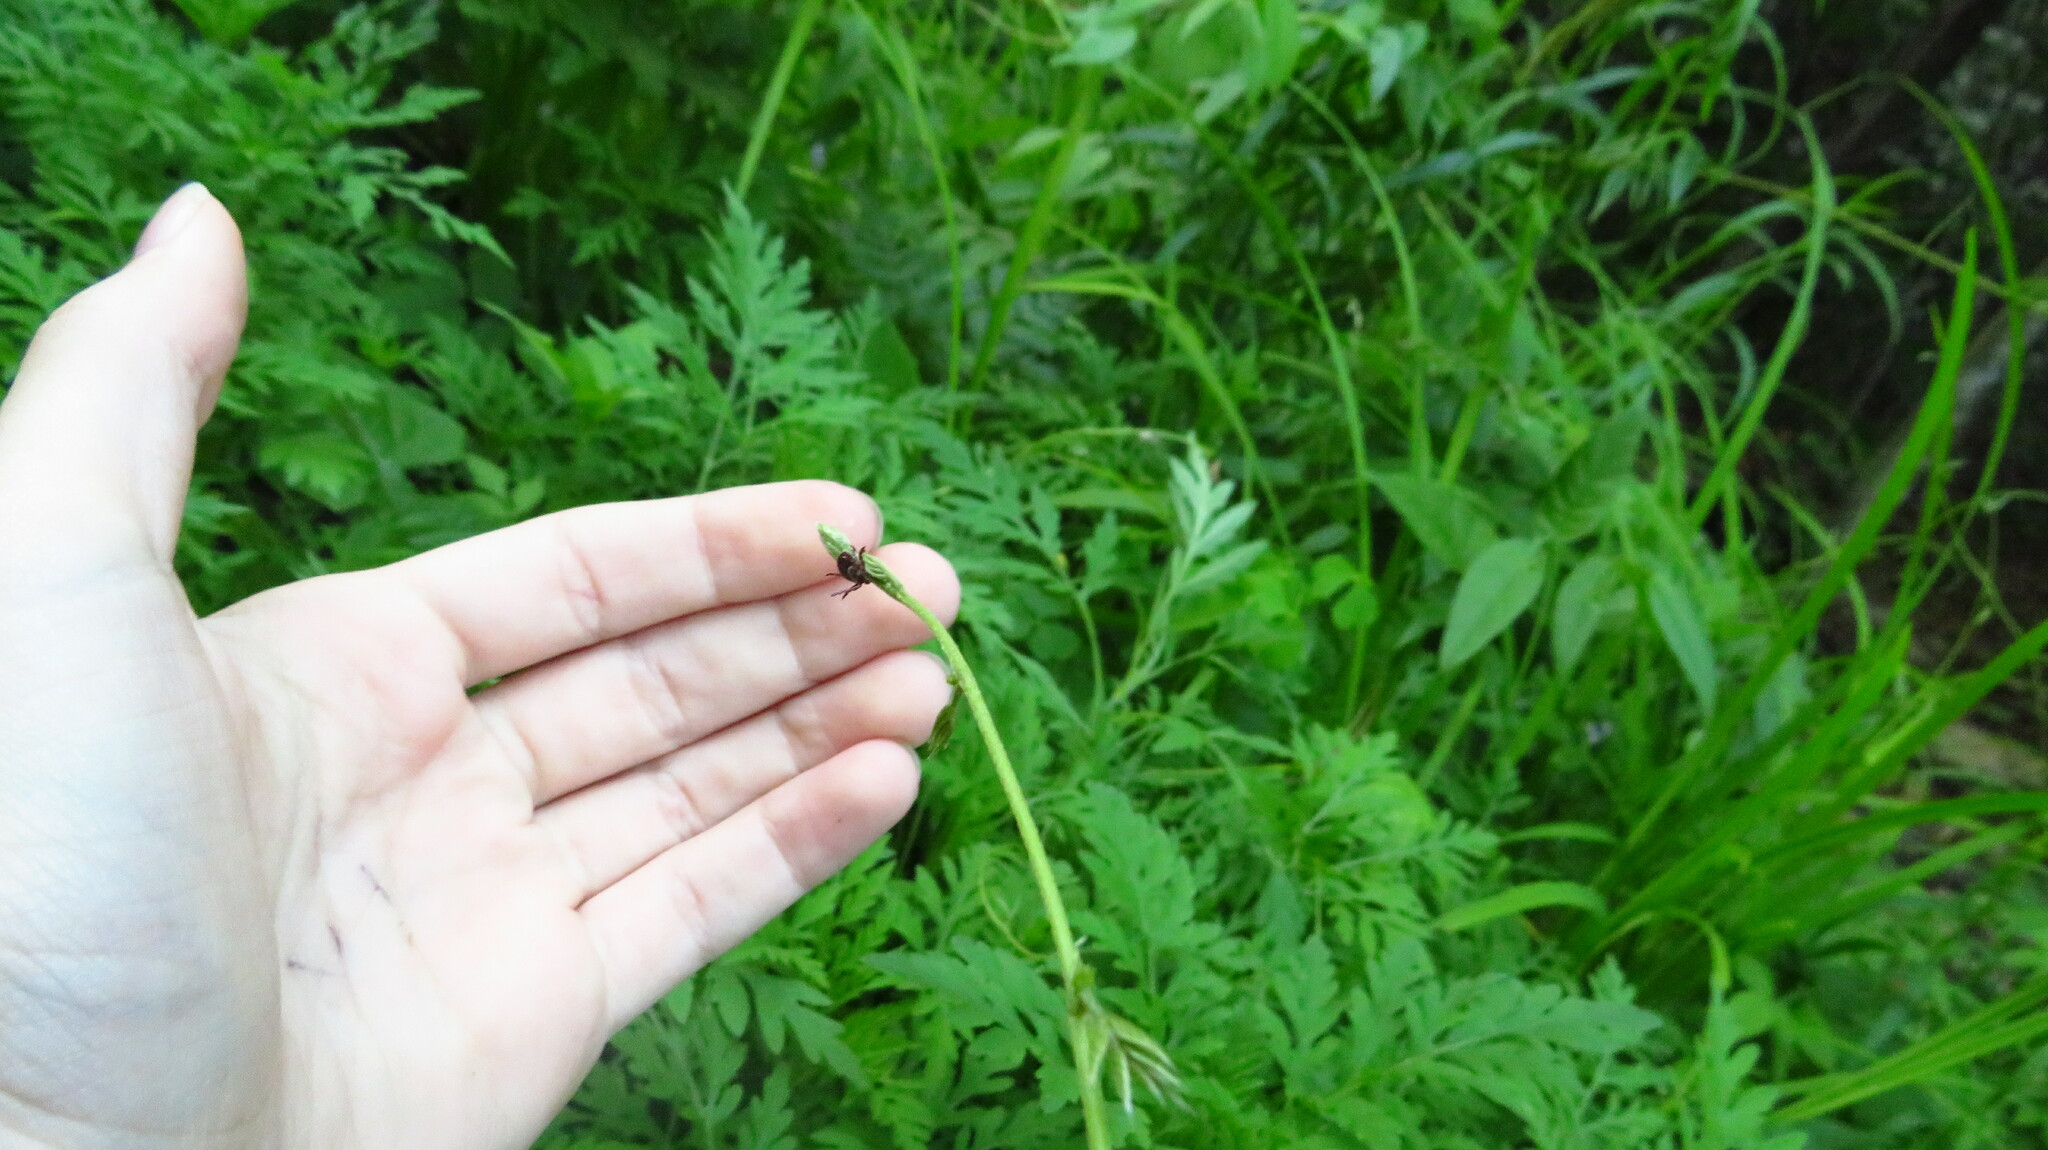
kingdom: Animalia
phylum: Arthropoda
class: Arachnida
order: Ixodida
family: Ixodidae
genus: Dermacentor
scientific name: Dermacentor variabilis
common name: American dog tick
